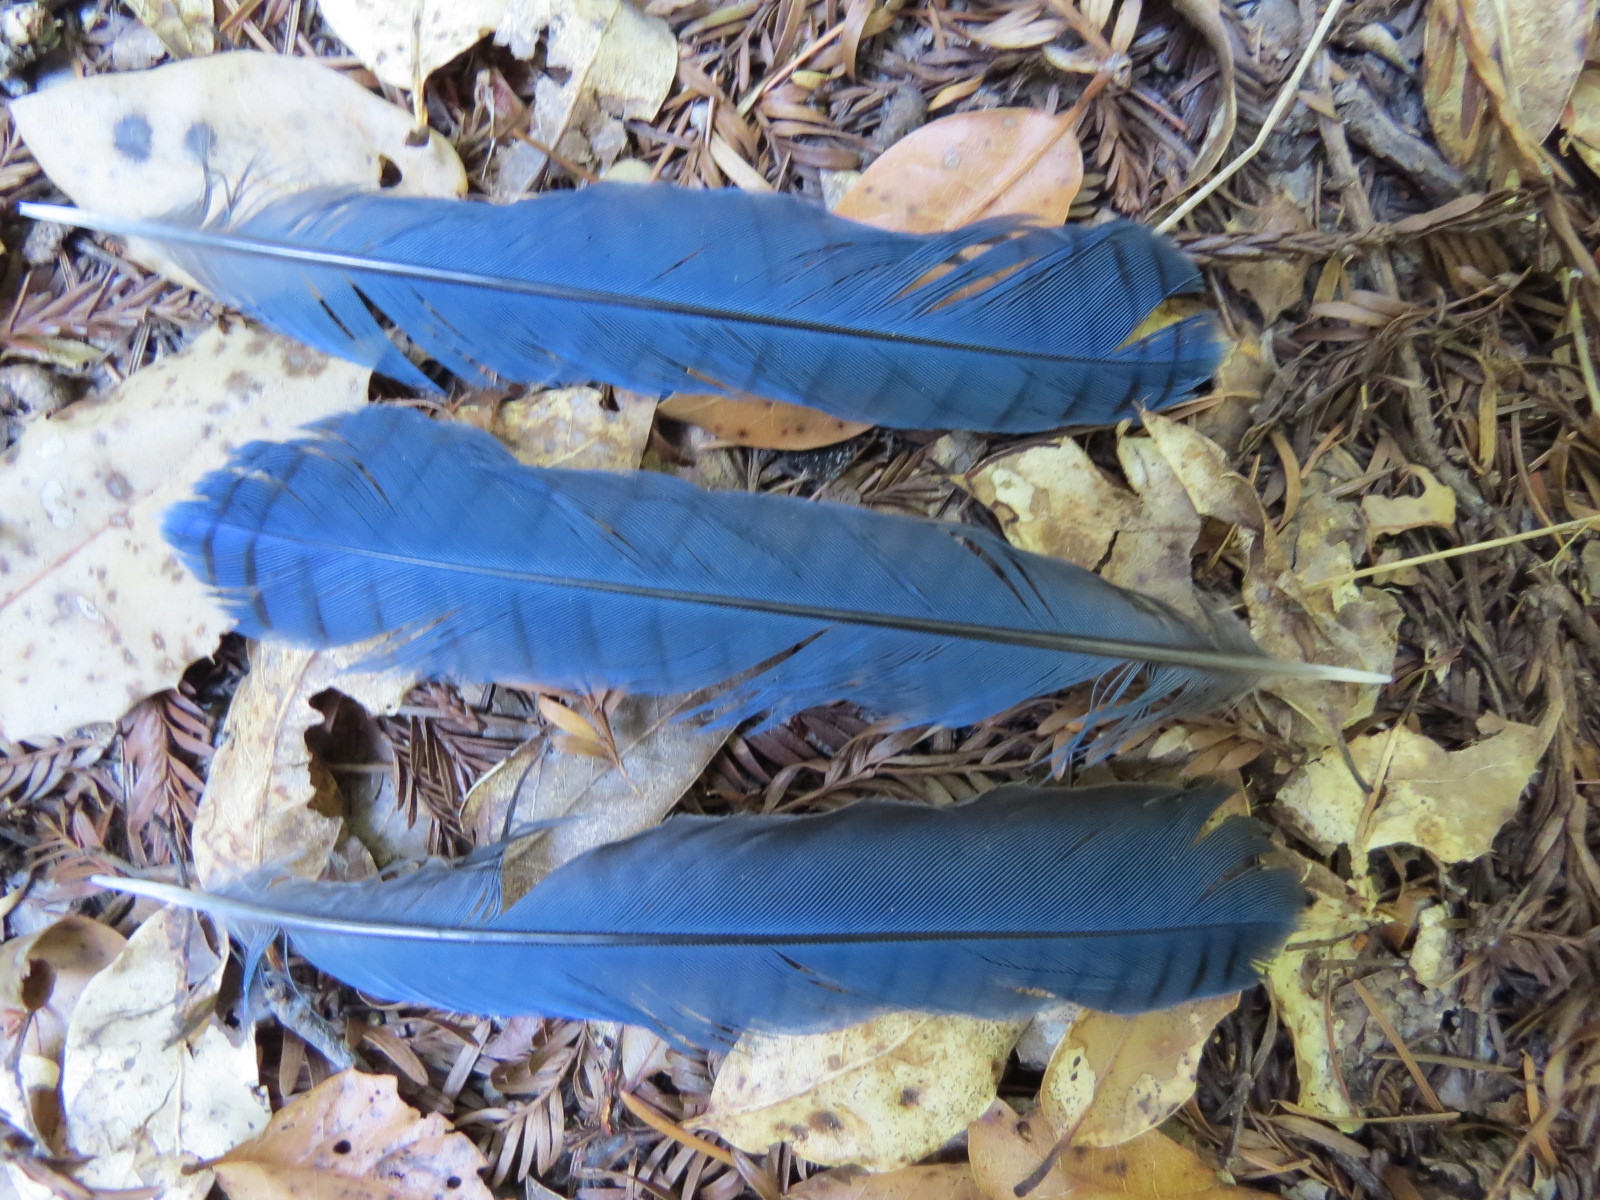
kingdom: Animalia
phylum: Chordata
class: Aves
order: Passeriformes
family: Corvidae
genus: Cyanocitta
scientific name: Cyanocitta stelleri
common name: Steller's jay
